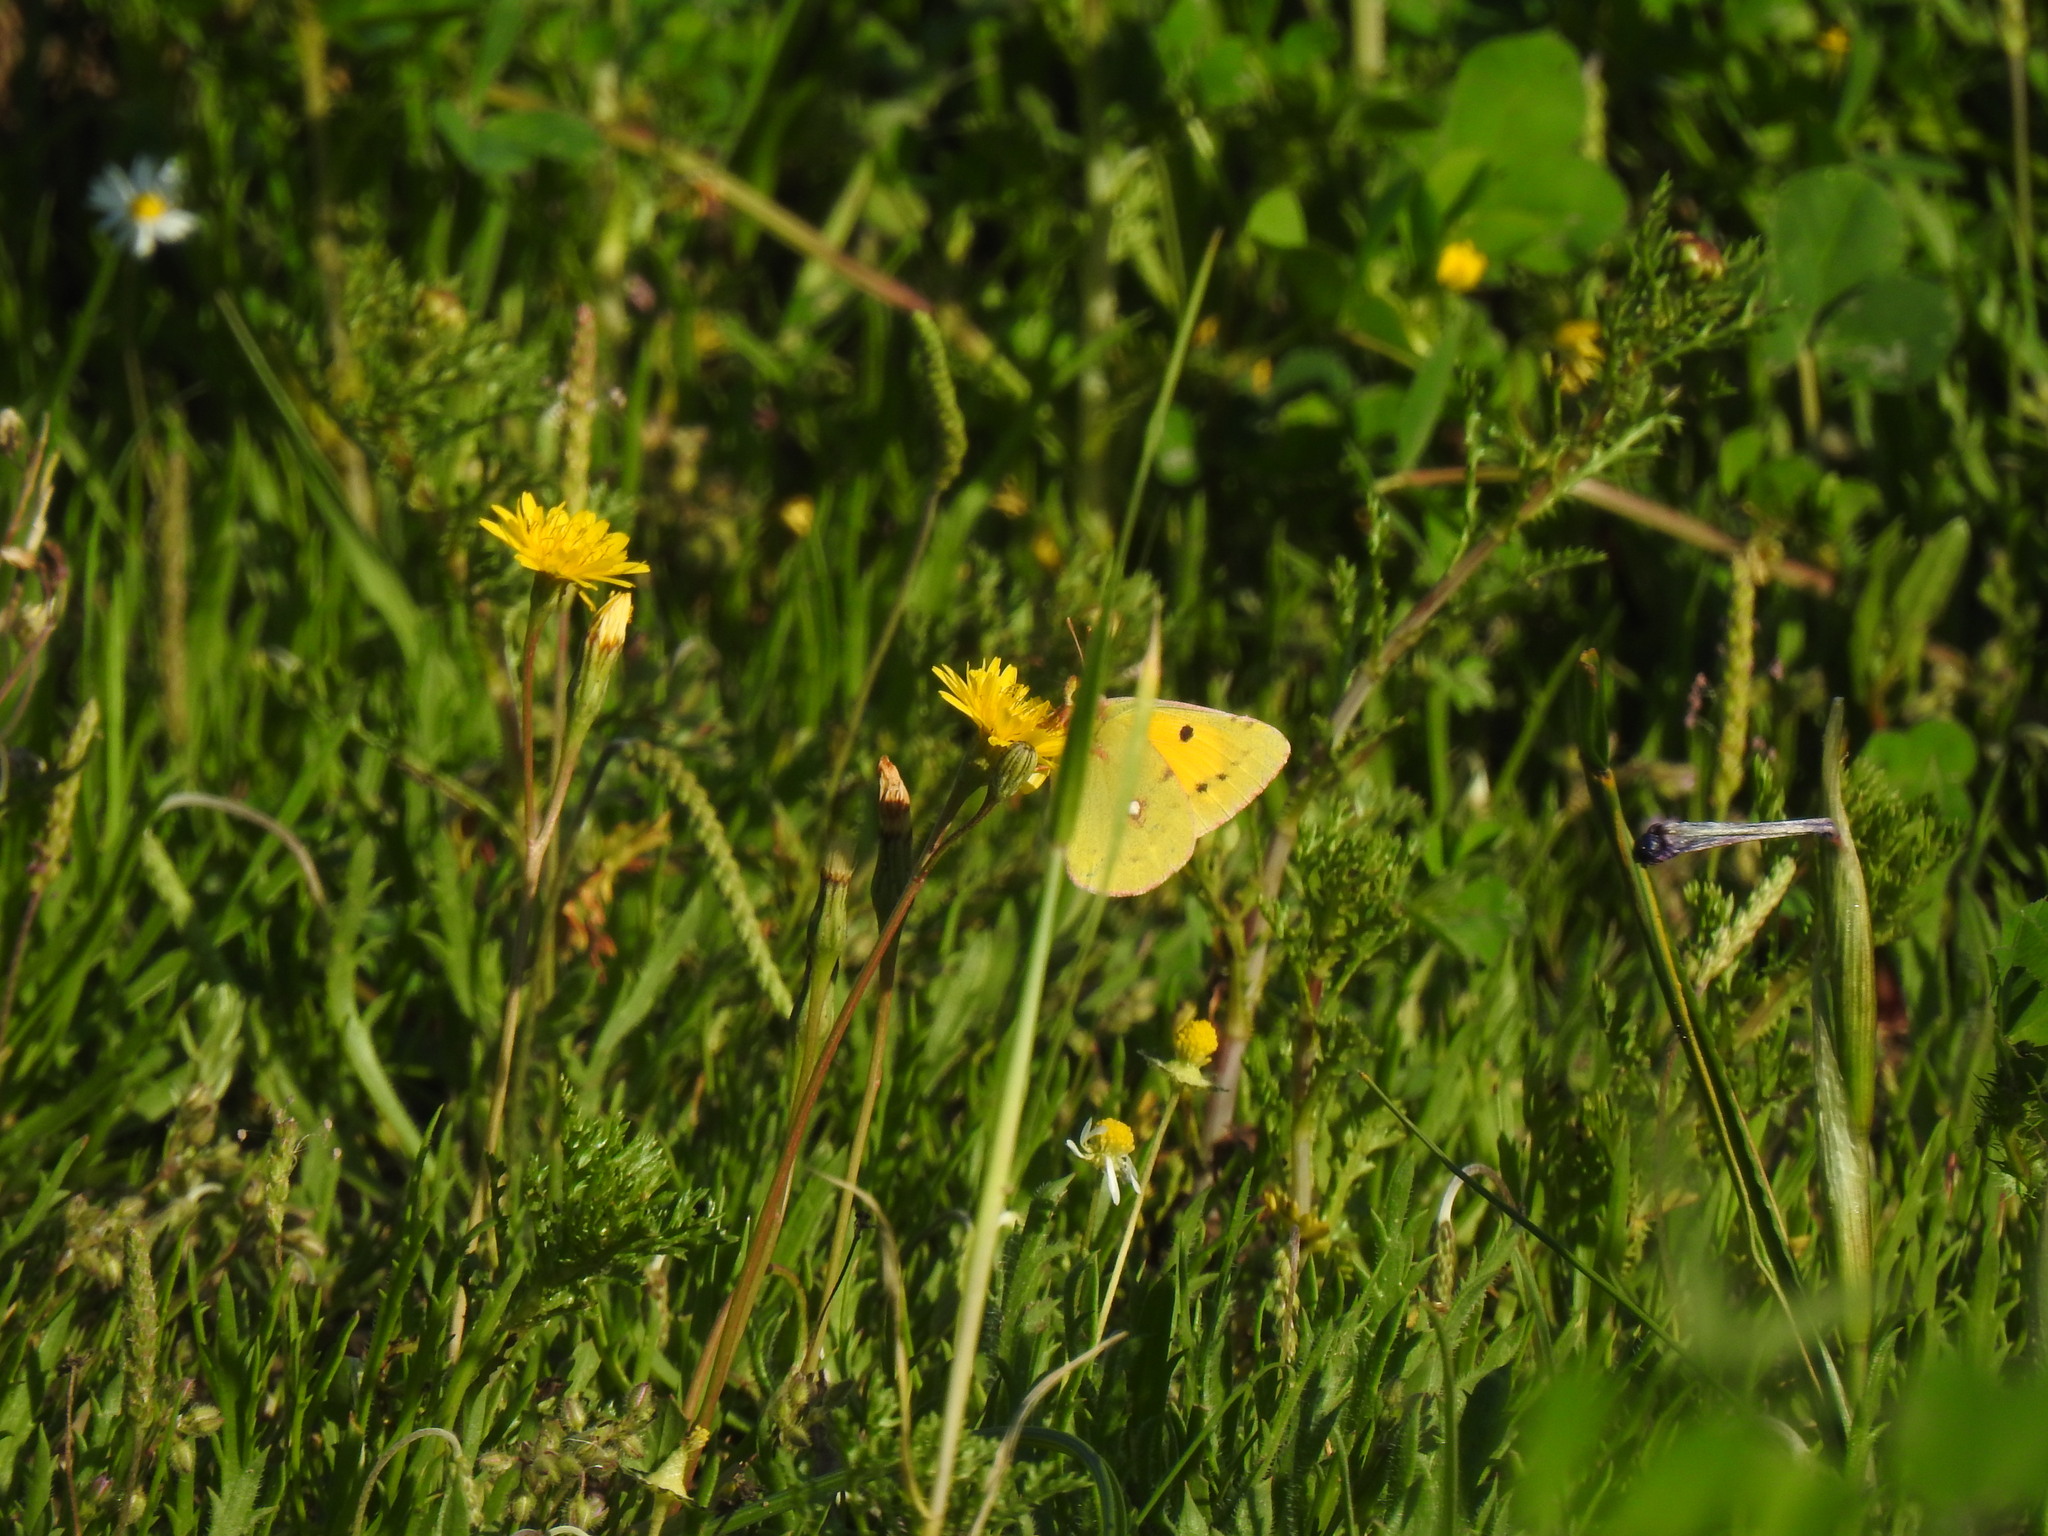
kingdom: Animalia
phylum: Arthropoda
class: Insecta
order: Lepidoptera
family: Pieridae
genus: Colias
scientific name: Colias croceus
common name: Clouded yellow
